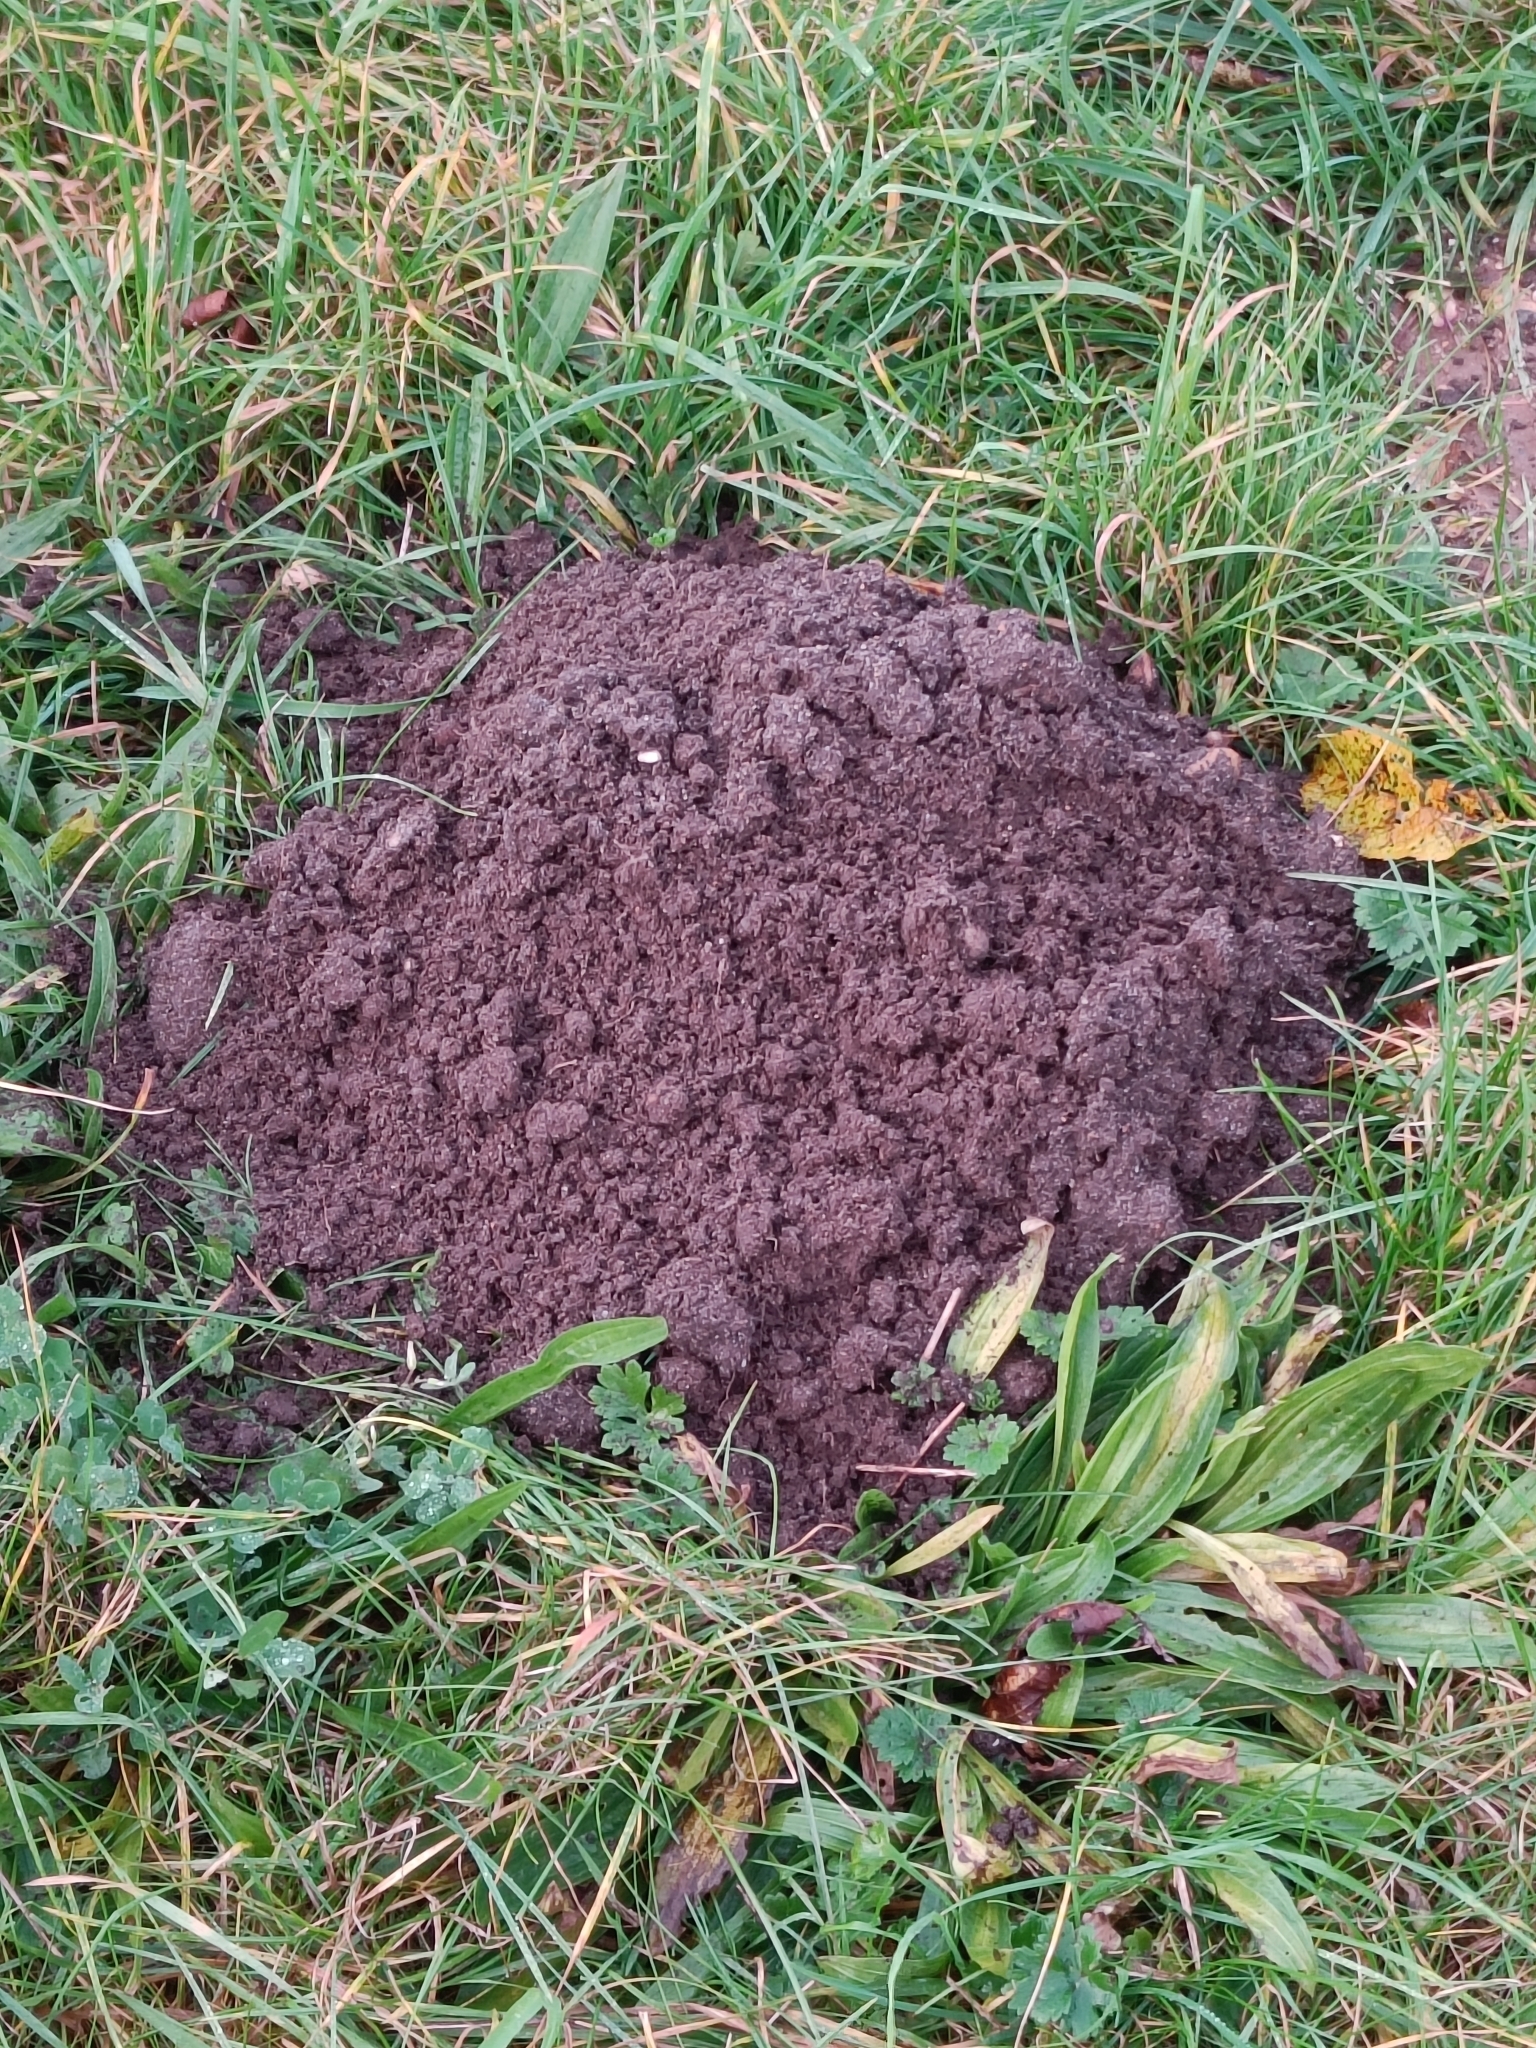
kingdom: Animalia
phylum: Chordata
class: Mammalia
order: Soricomorpha
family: Talpidae
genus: Talpa
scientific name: Talpa europaea
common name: European mole
